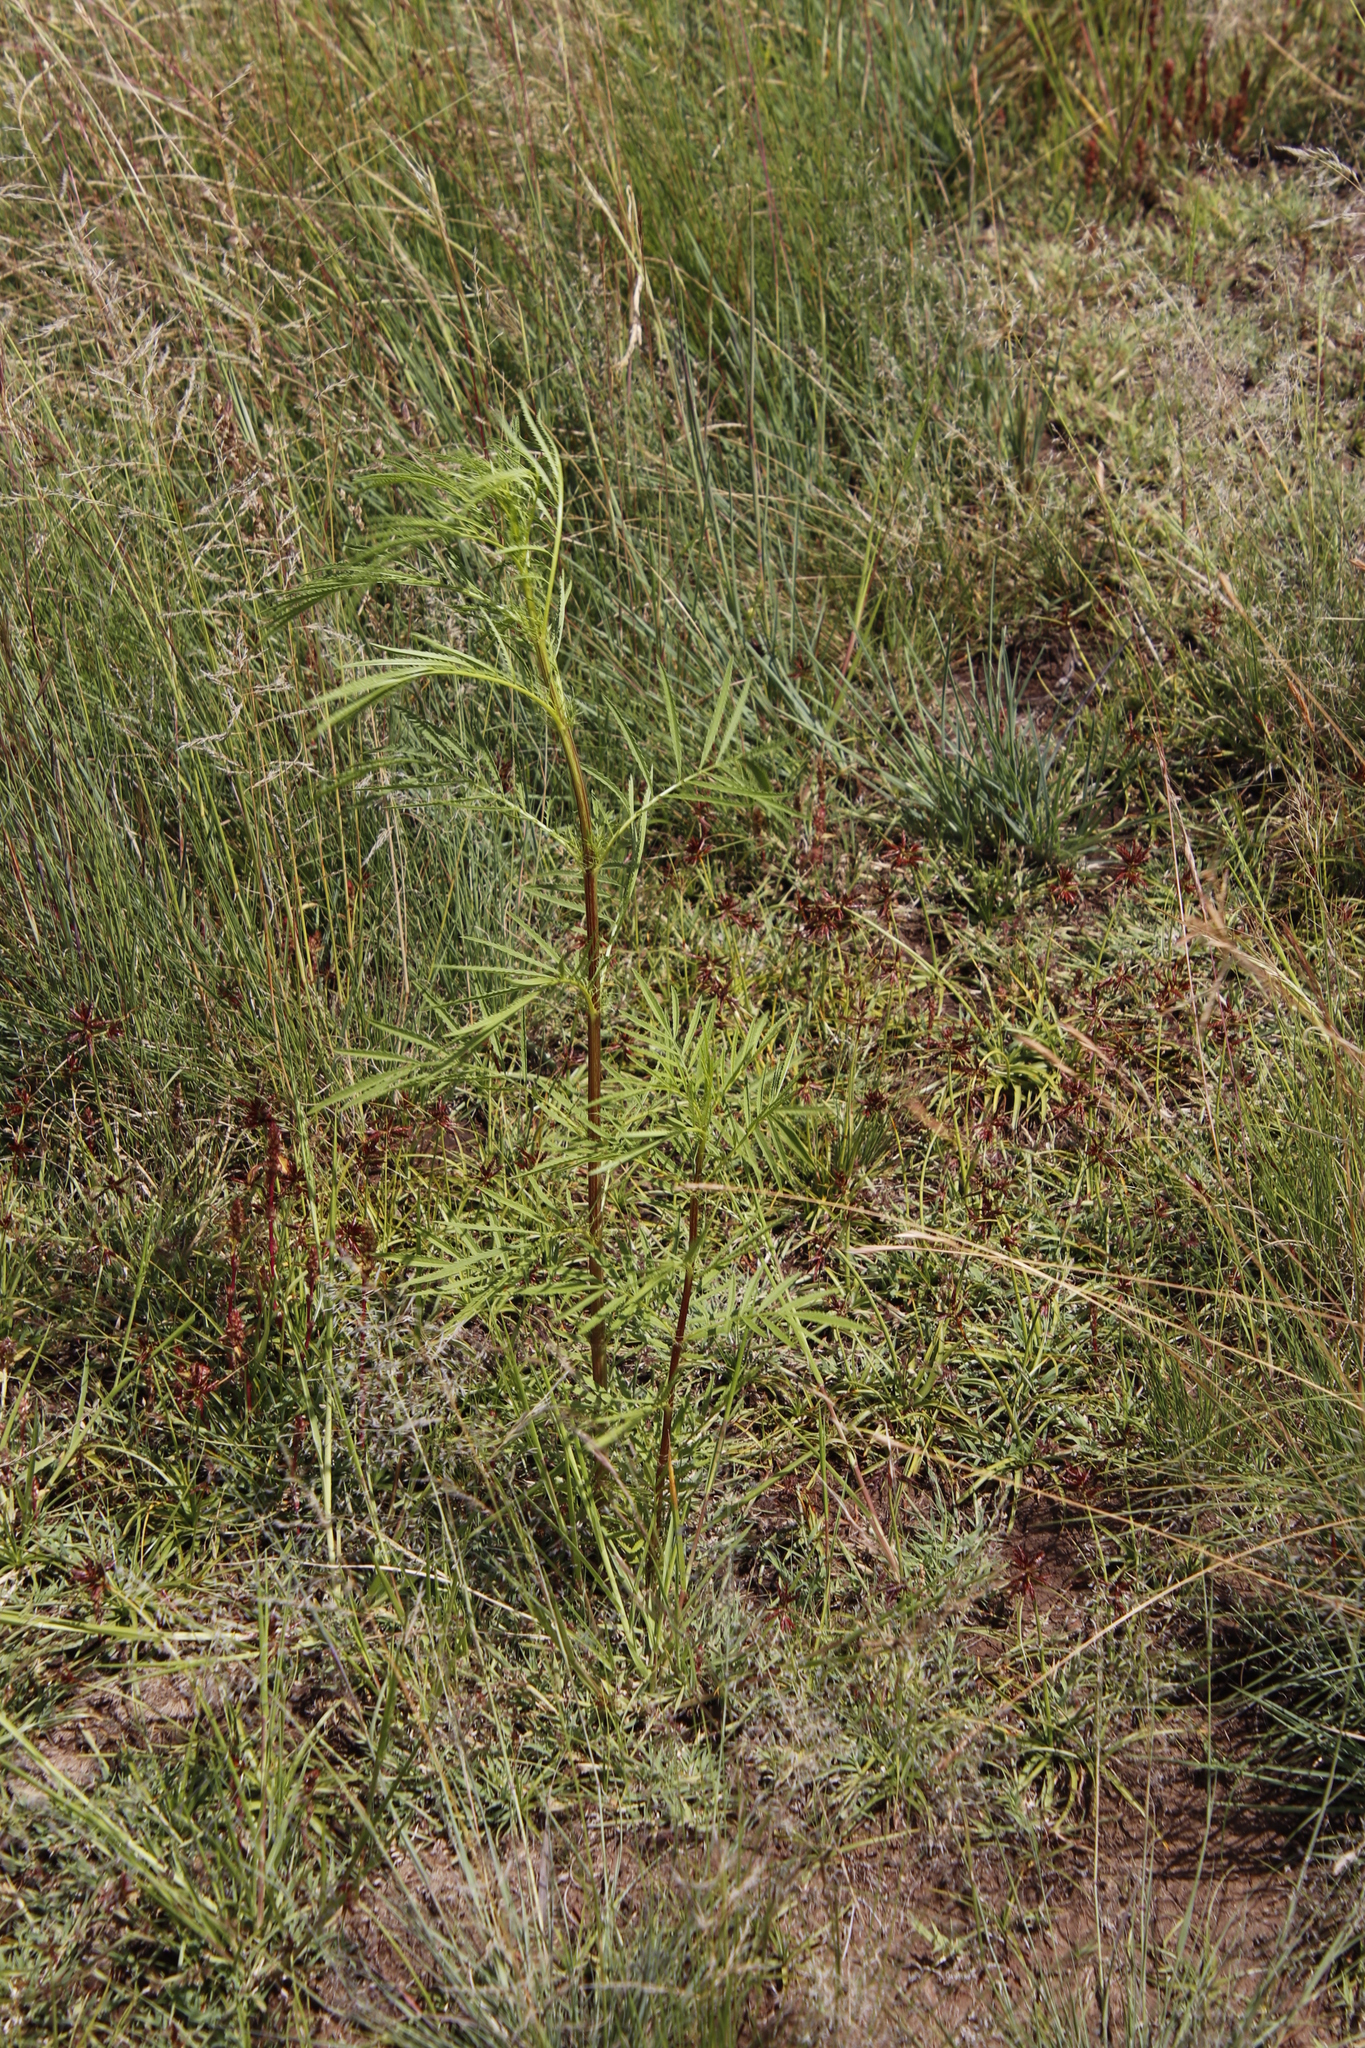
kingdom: Plantae
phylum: Tracheophyta
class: Magnoliopsida
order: Asterales
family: Asteraceae
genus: Tagetes
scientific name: Tagetes minuta
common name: Muster john henry
